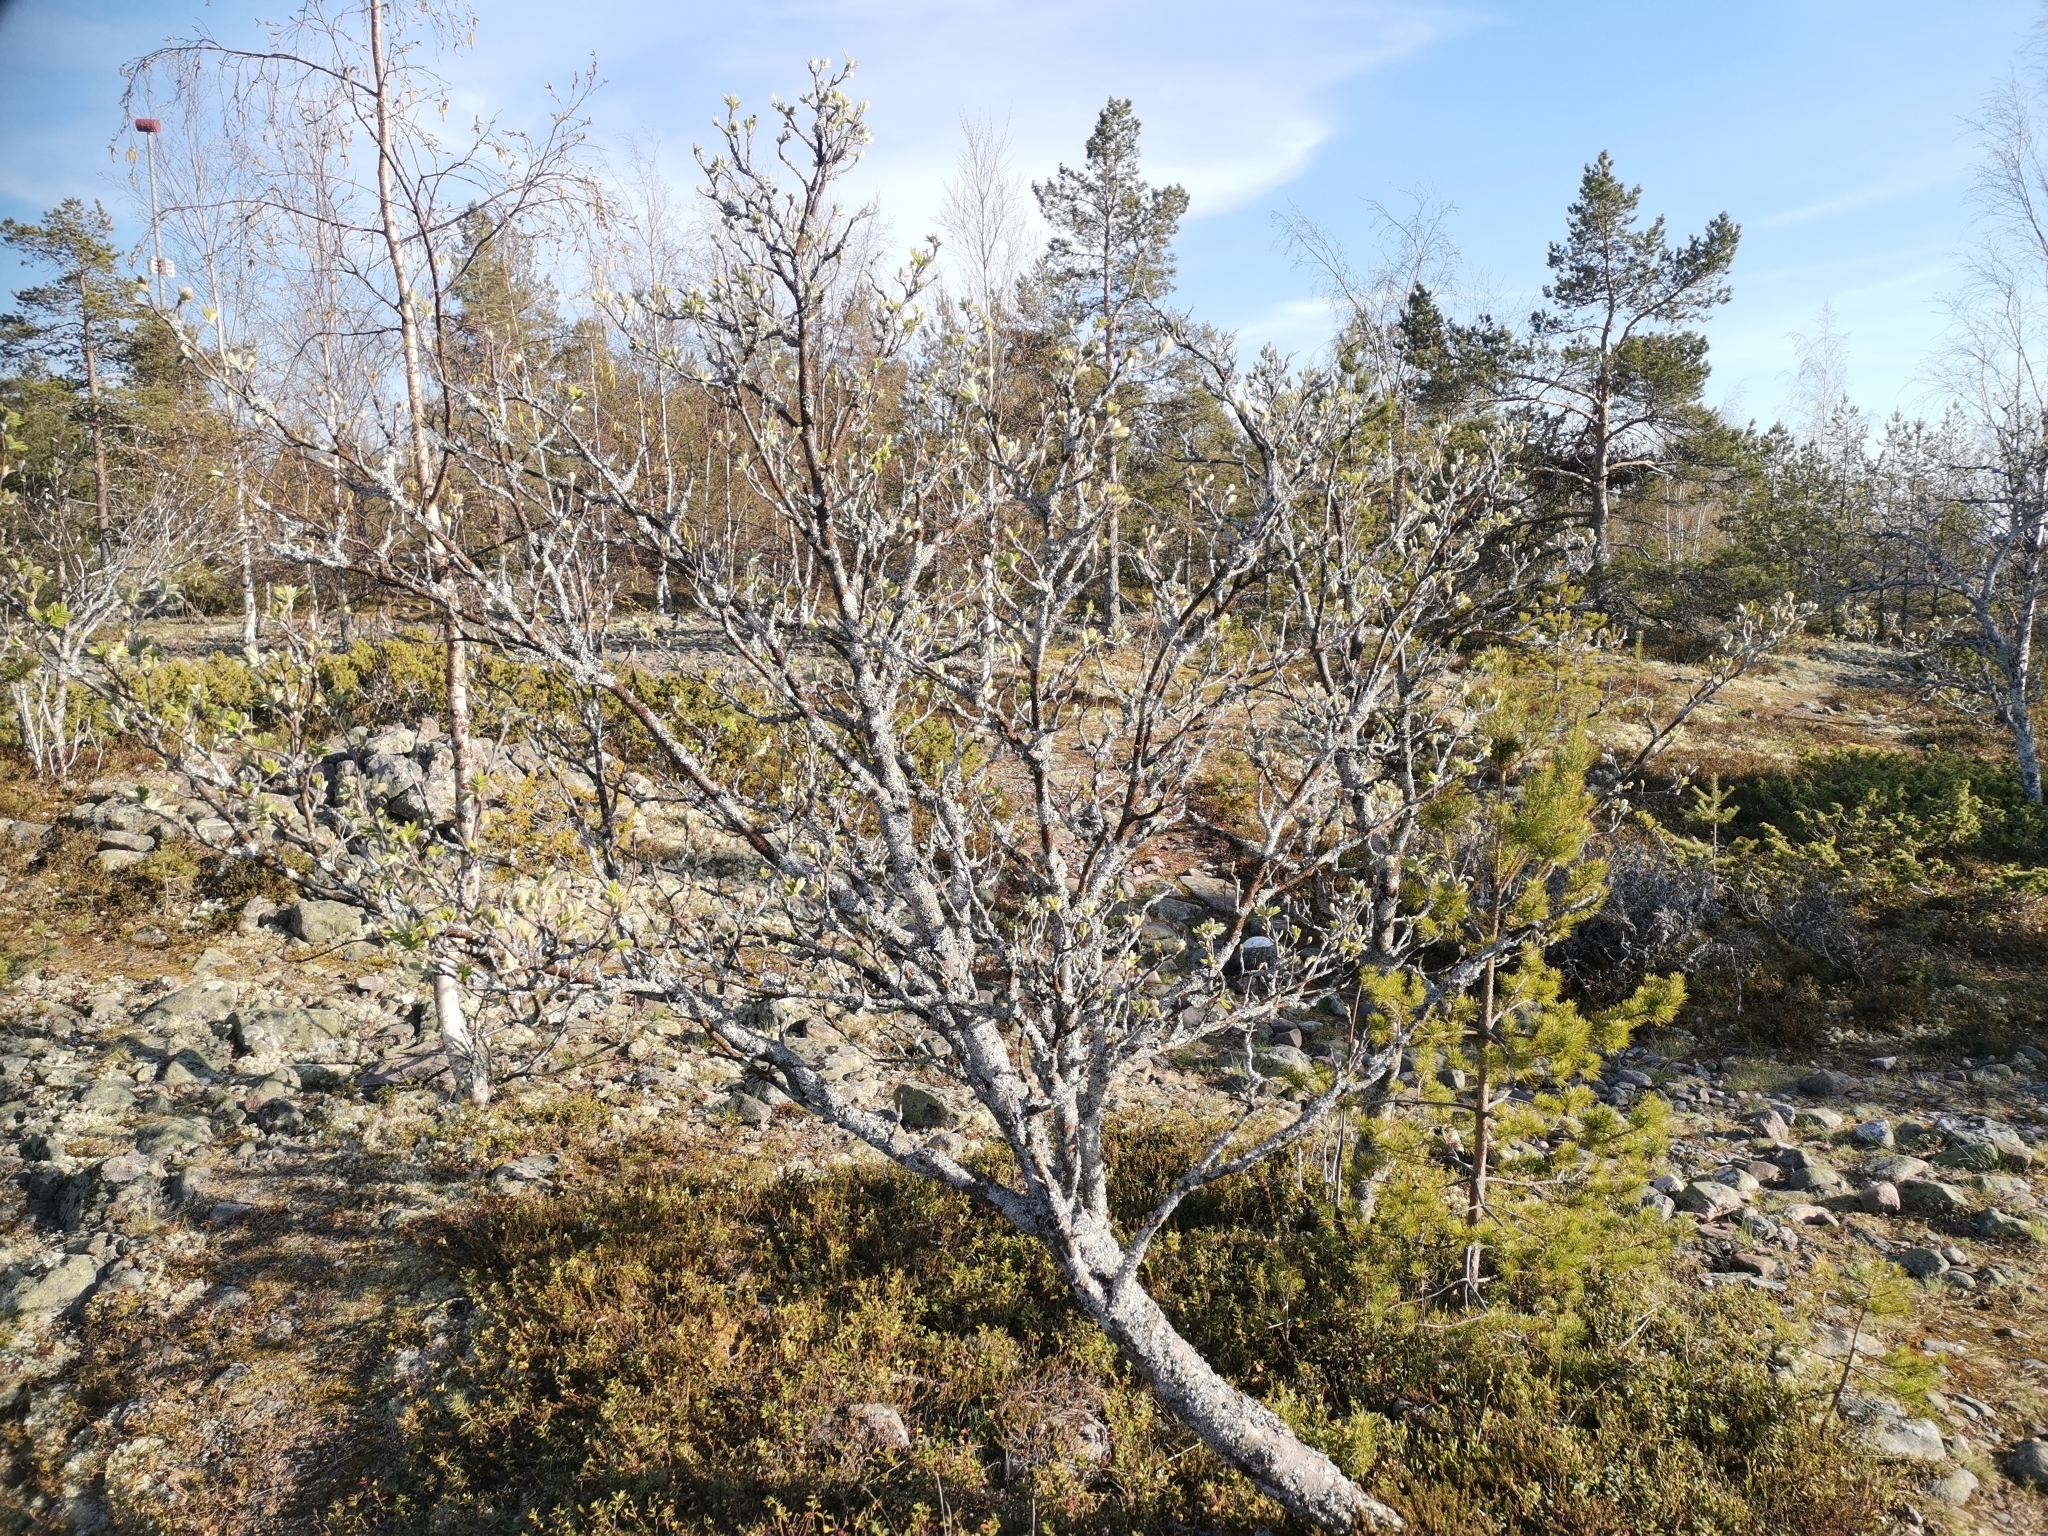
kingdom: Plantae
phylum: Tracheophyta
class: Magnoliopsida
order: Rosales
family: Rosaceae
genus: Sorbus
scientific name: Sorbus aucuparia
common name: Rowan
